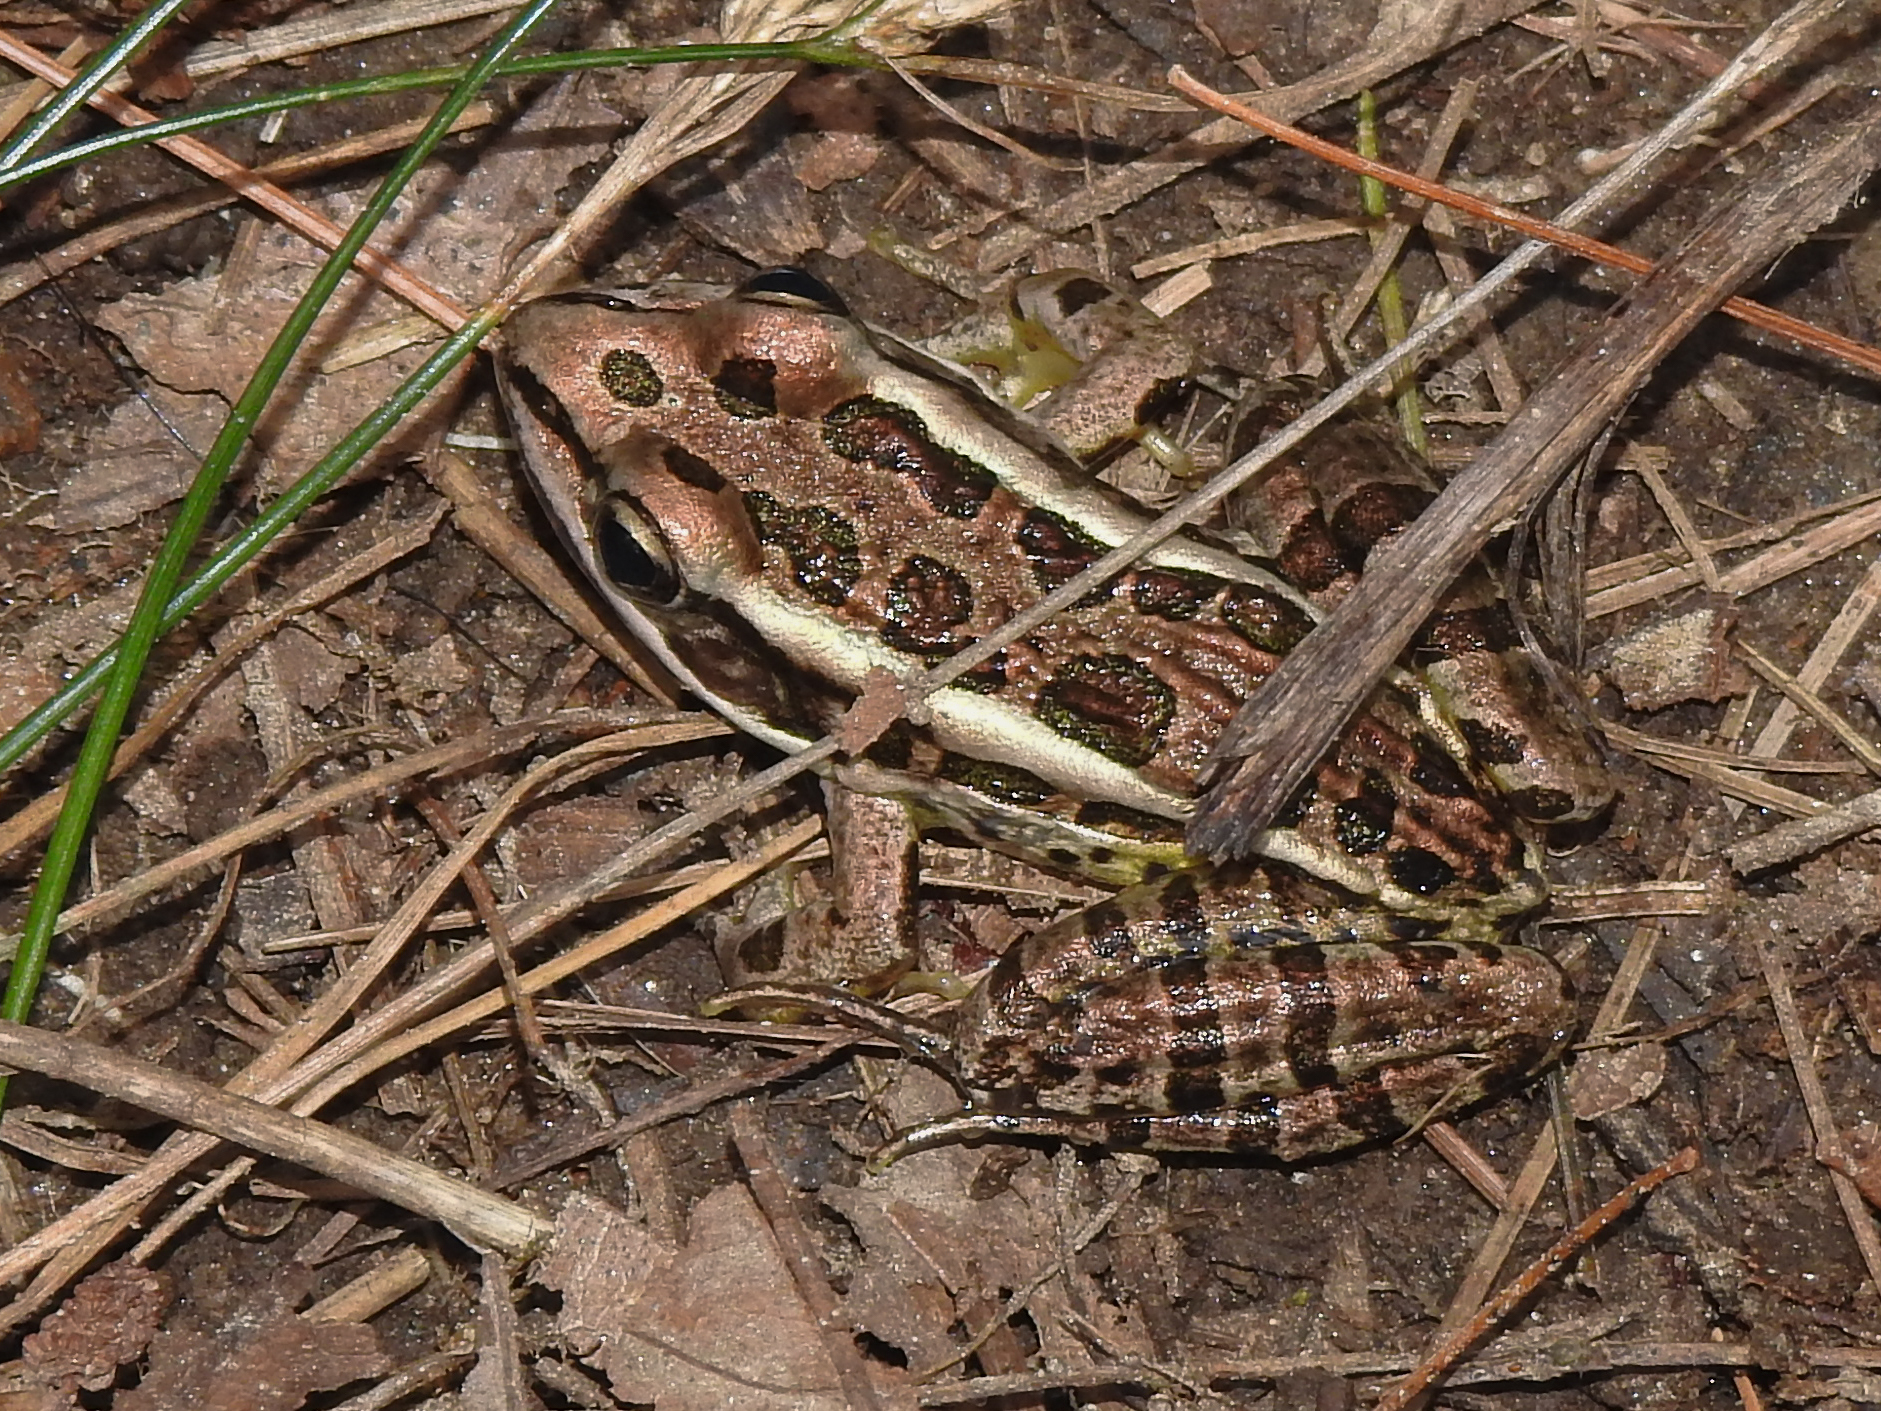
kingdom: Animalia
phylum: Chordata
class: Amphibia
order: Anura
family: Ranidae
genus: Lithobates
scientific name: Lithobates palustris
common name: Pickerel frog
